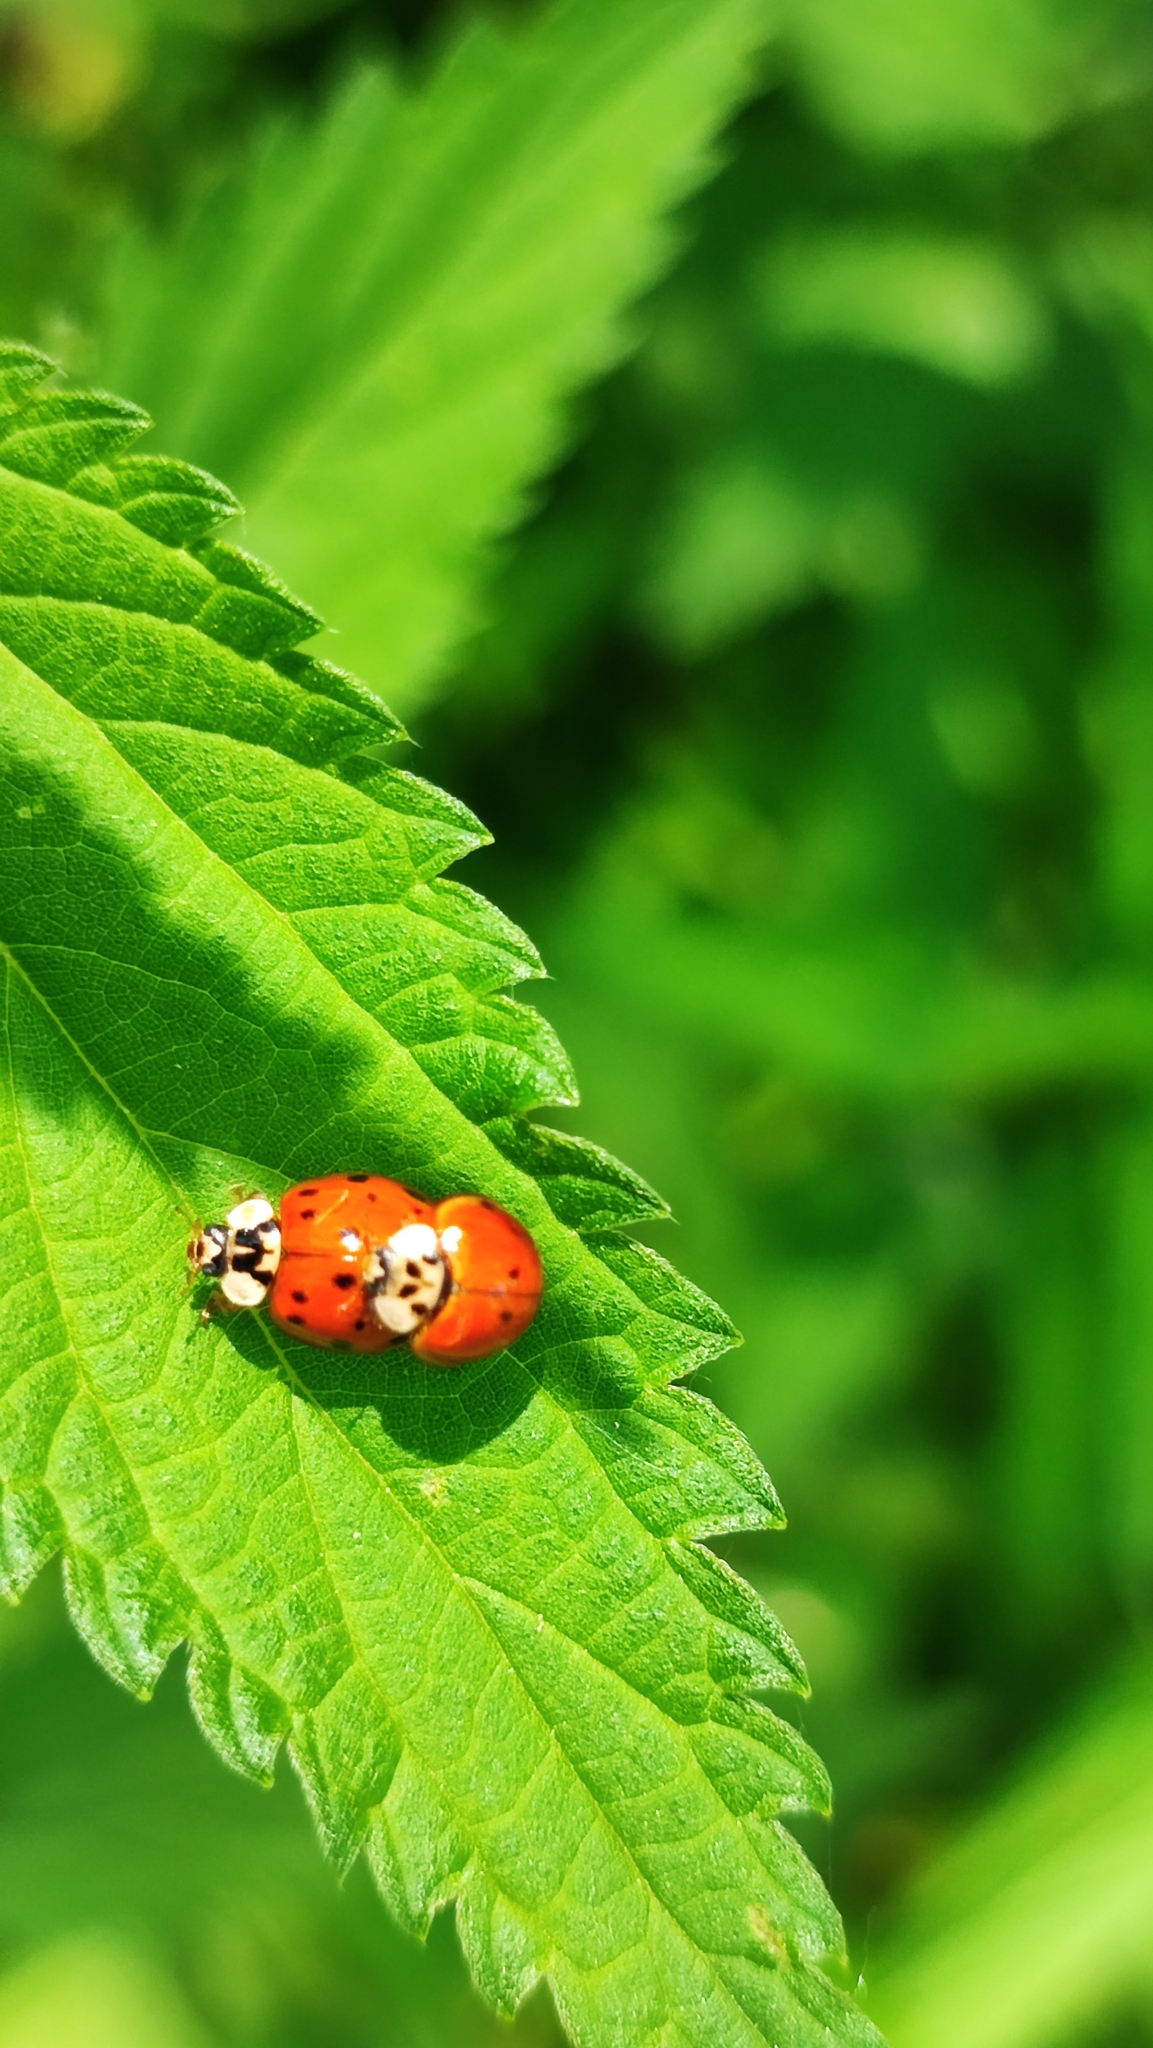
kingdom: Animalia
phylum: Arthropoda
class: Insecta
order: Coleoptera
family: Coccinellidae
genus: Harmonia
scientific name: Harmonia axyridis
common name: Harlequin ladybird
